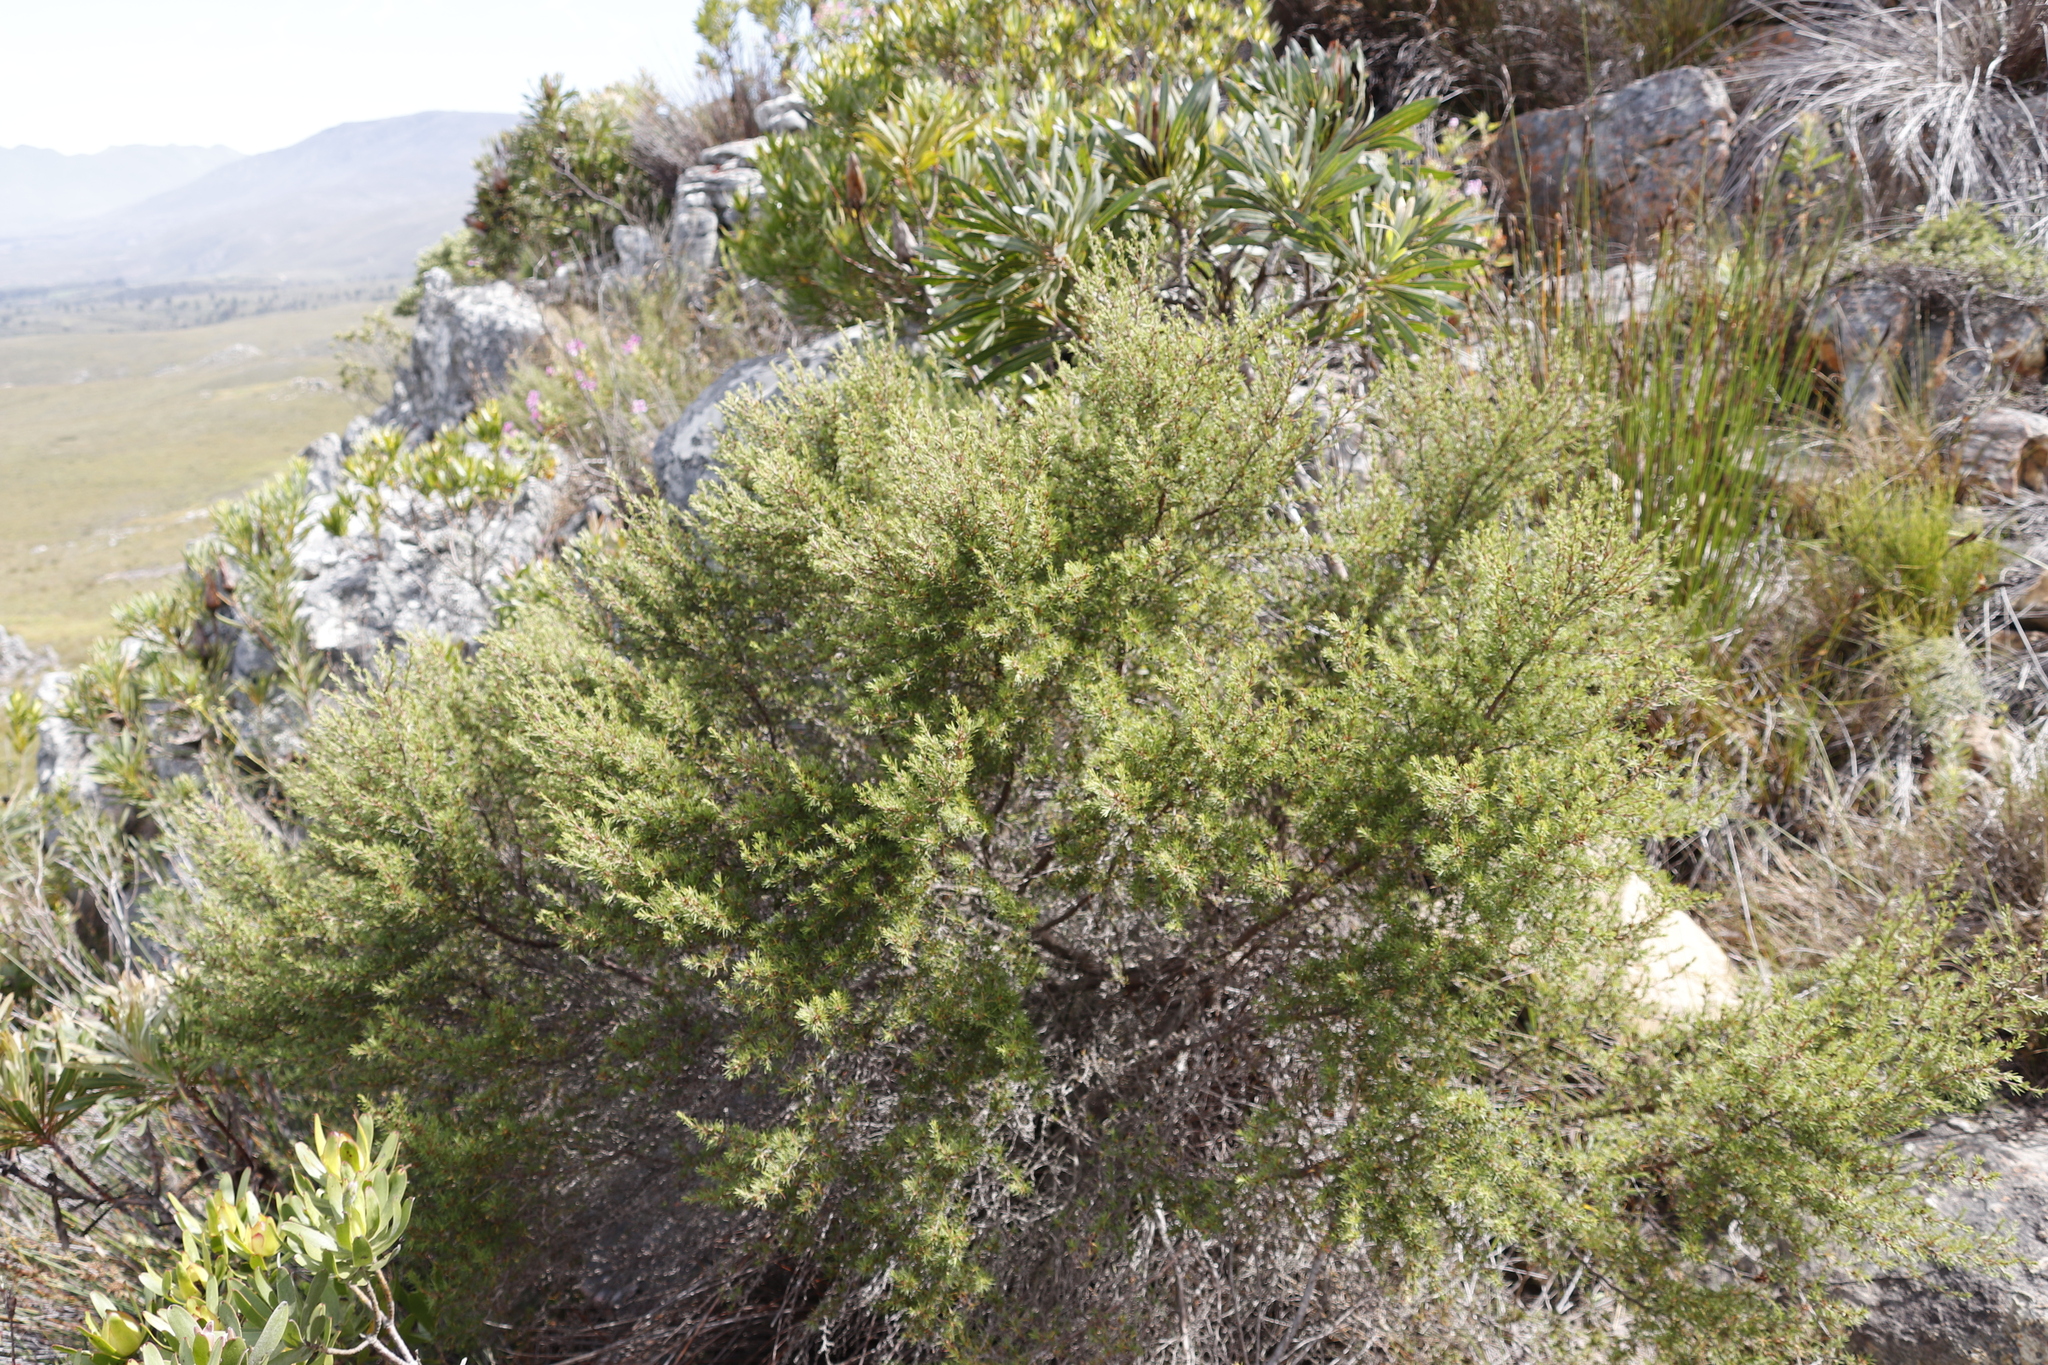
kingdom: Plantae
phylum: Tracheophyta
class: Magnoliopsida
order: Rosales
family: Rosaceae
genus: Cliffortia
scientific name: Cliffortia atrata
